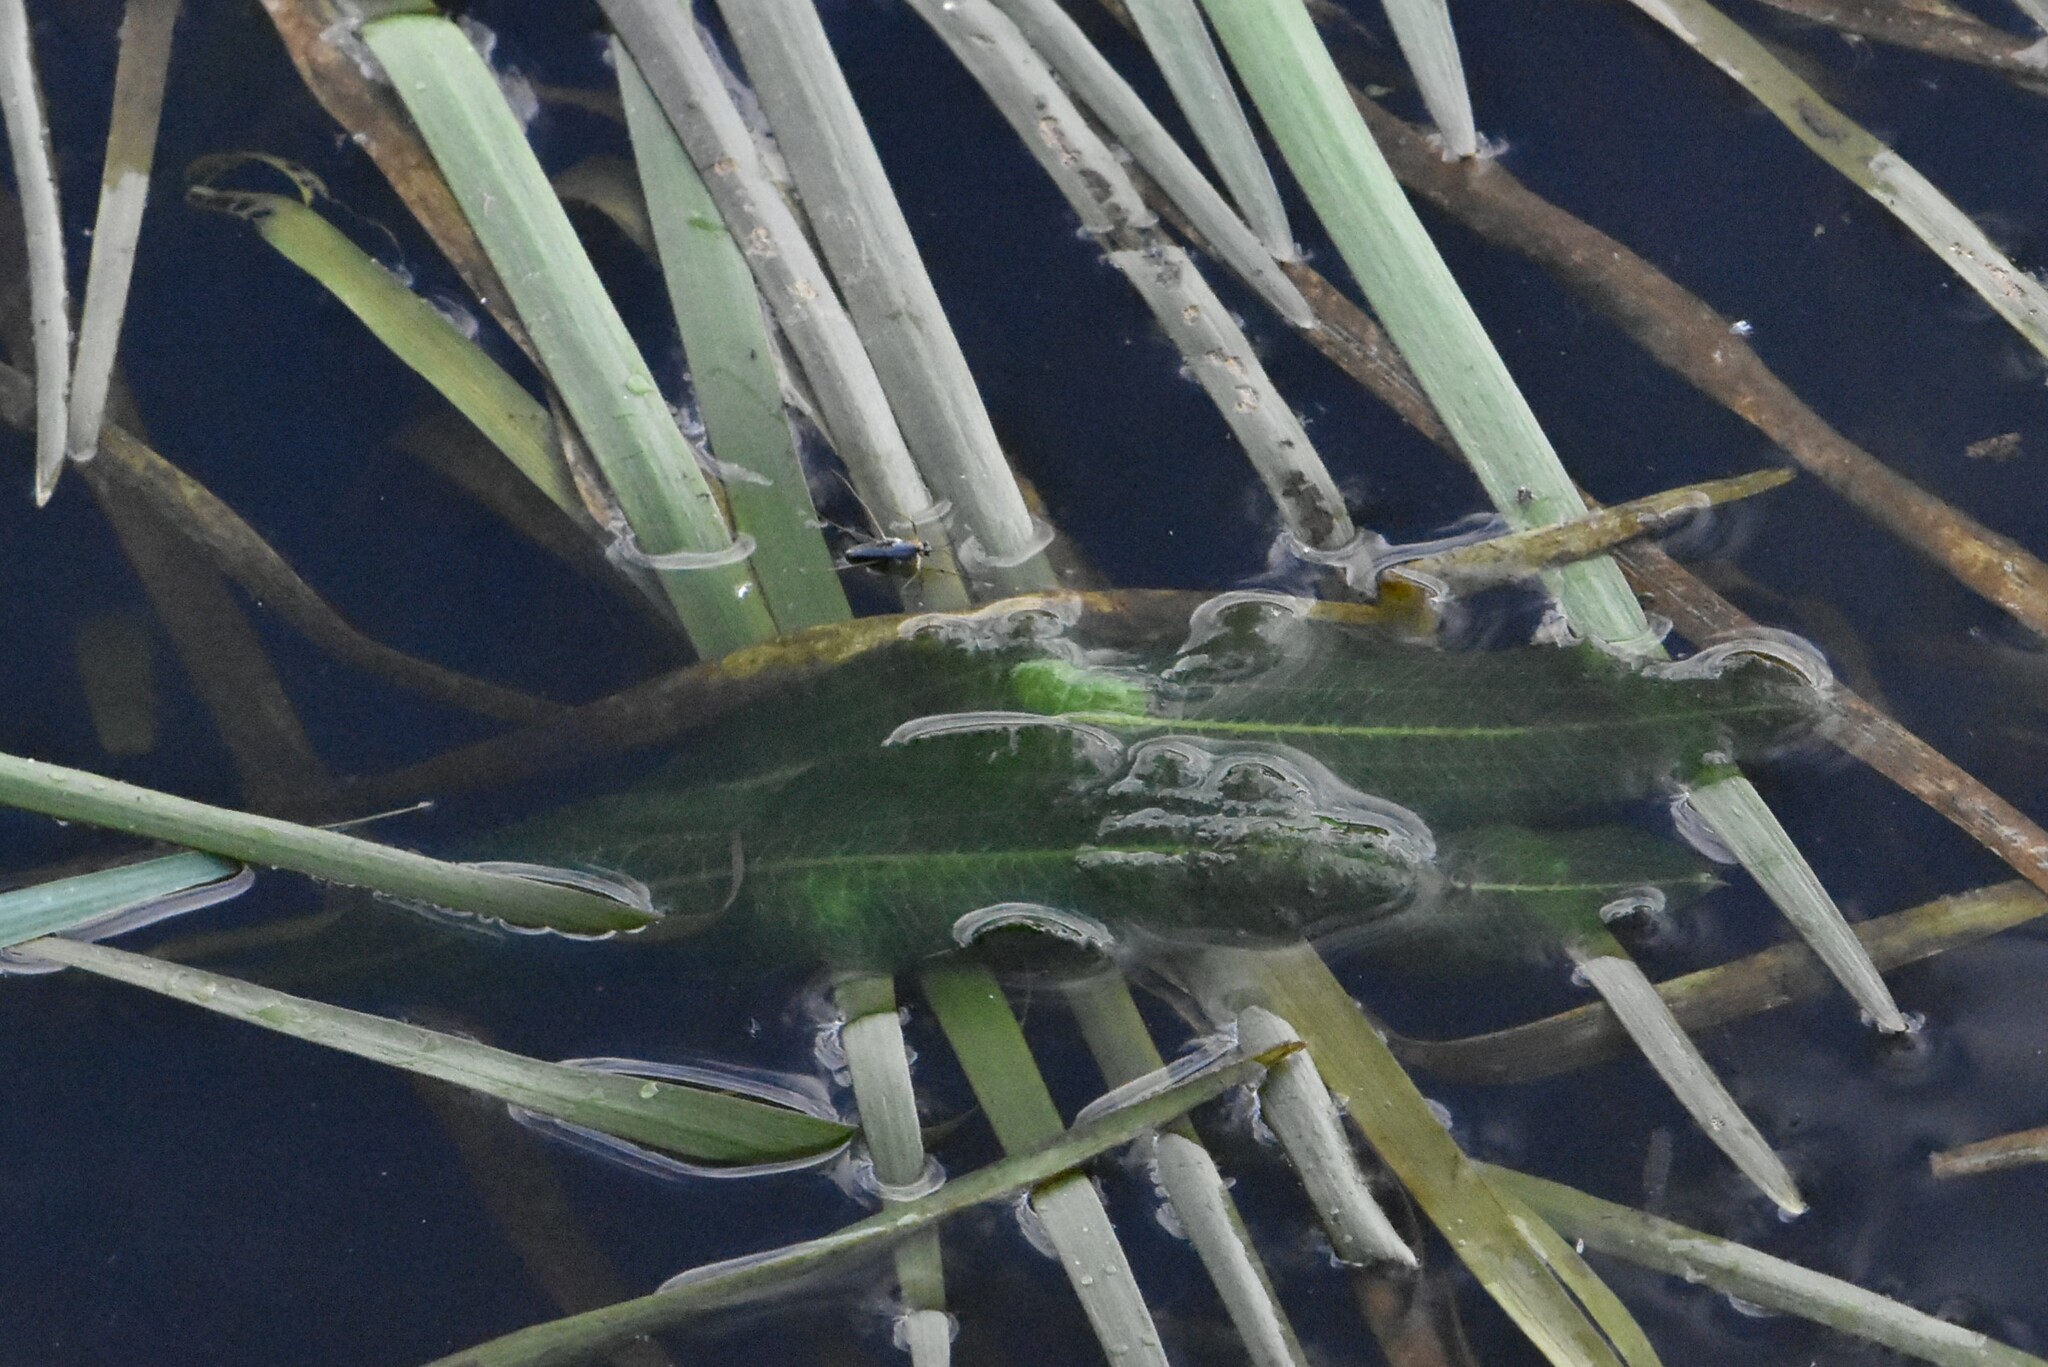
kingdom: Plantae
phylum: Tracheophyta
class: Liliopsida
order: Alismatales
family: Potamogetonaceae
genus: Potamogeton
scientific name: Potamogeton lucens
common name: Shining pondweed
